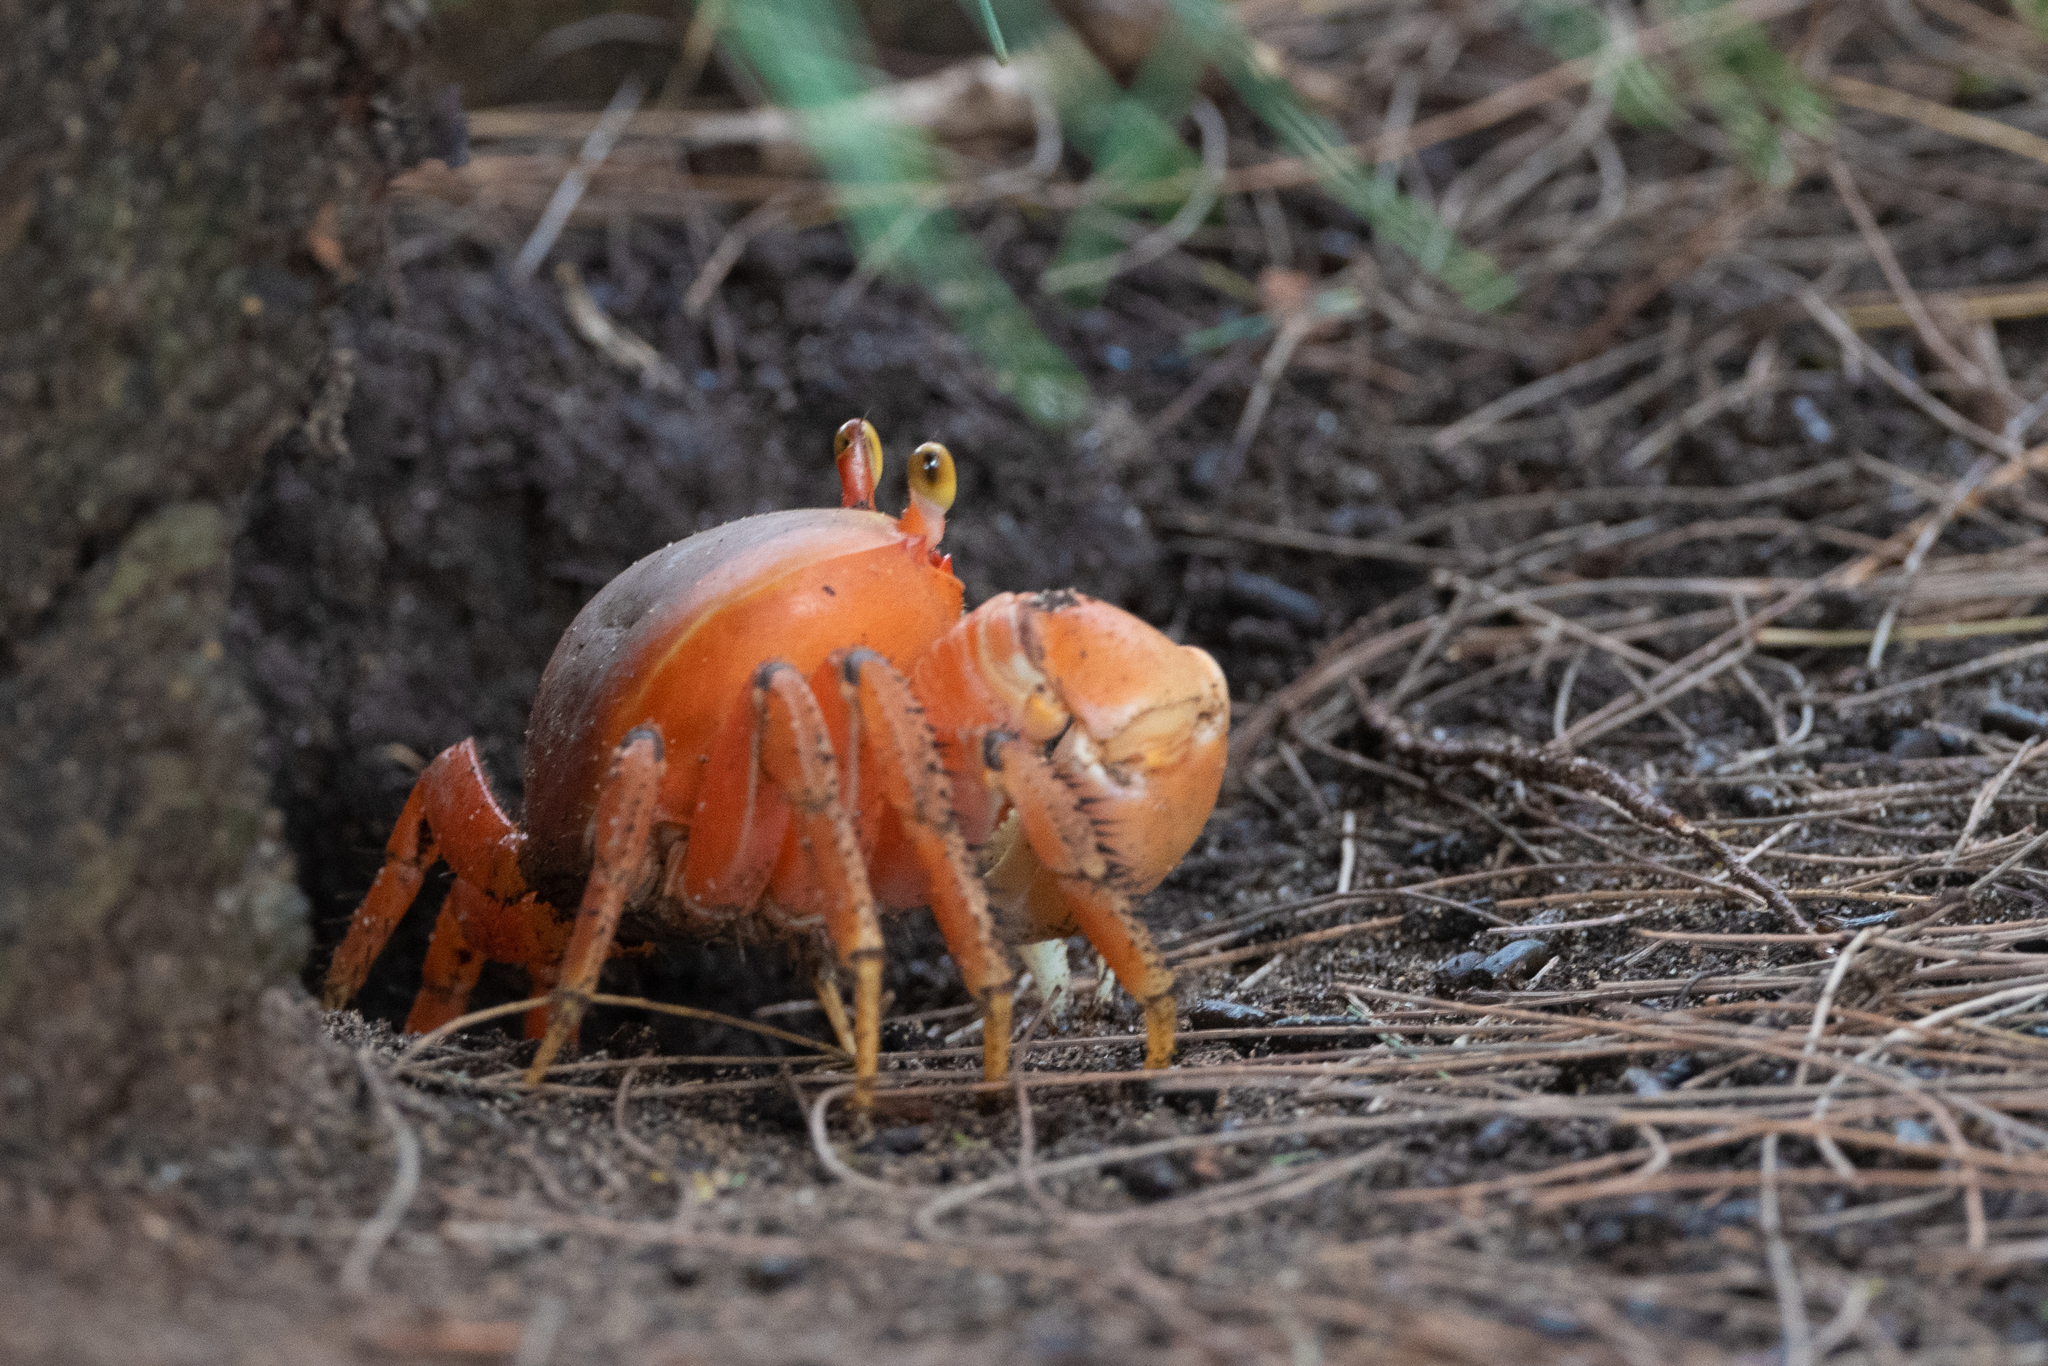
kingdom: Animalia
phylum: Arthropoda
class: Malacostraca
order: Decapoda
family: Gecarcinidae
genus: Gecarcinus
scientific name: Gecarcinus lateralis
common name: Bermuda land crab
